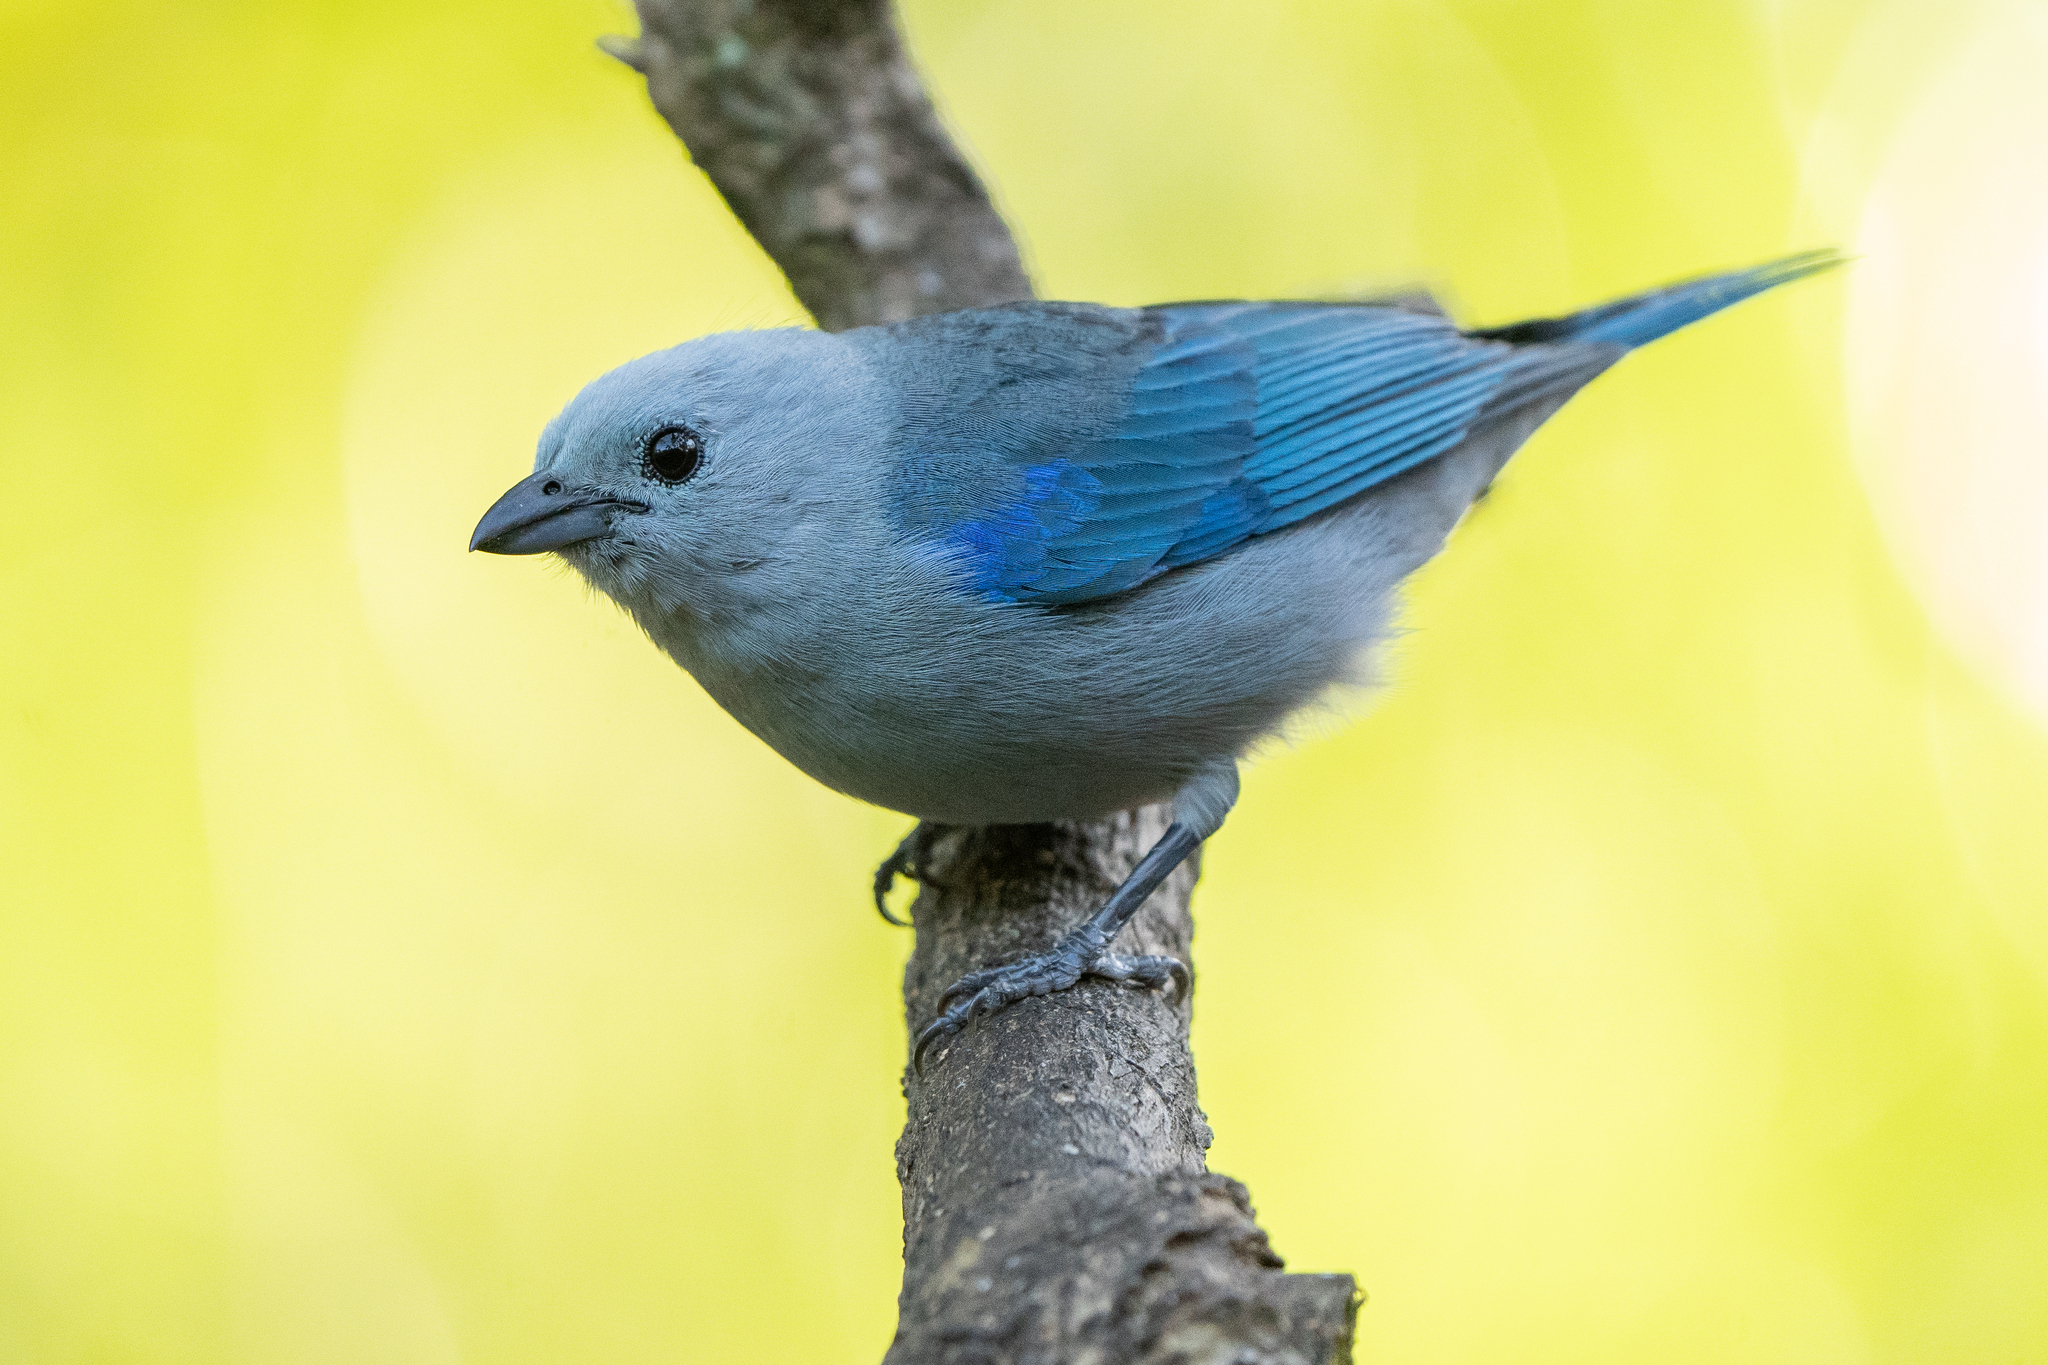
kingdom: Animalia
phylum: Chordata
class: Aves
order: Passeriformes
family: Thraupidae
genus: Thraupis
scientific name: Thraupis episcopus
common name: Blue-grey tanager
